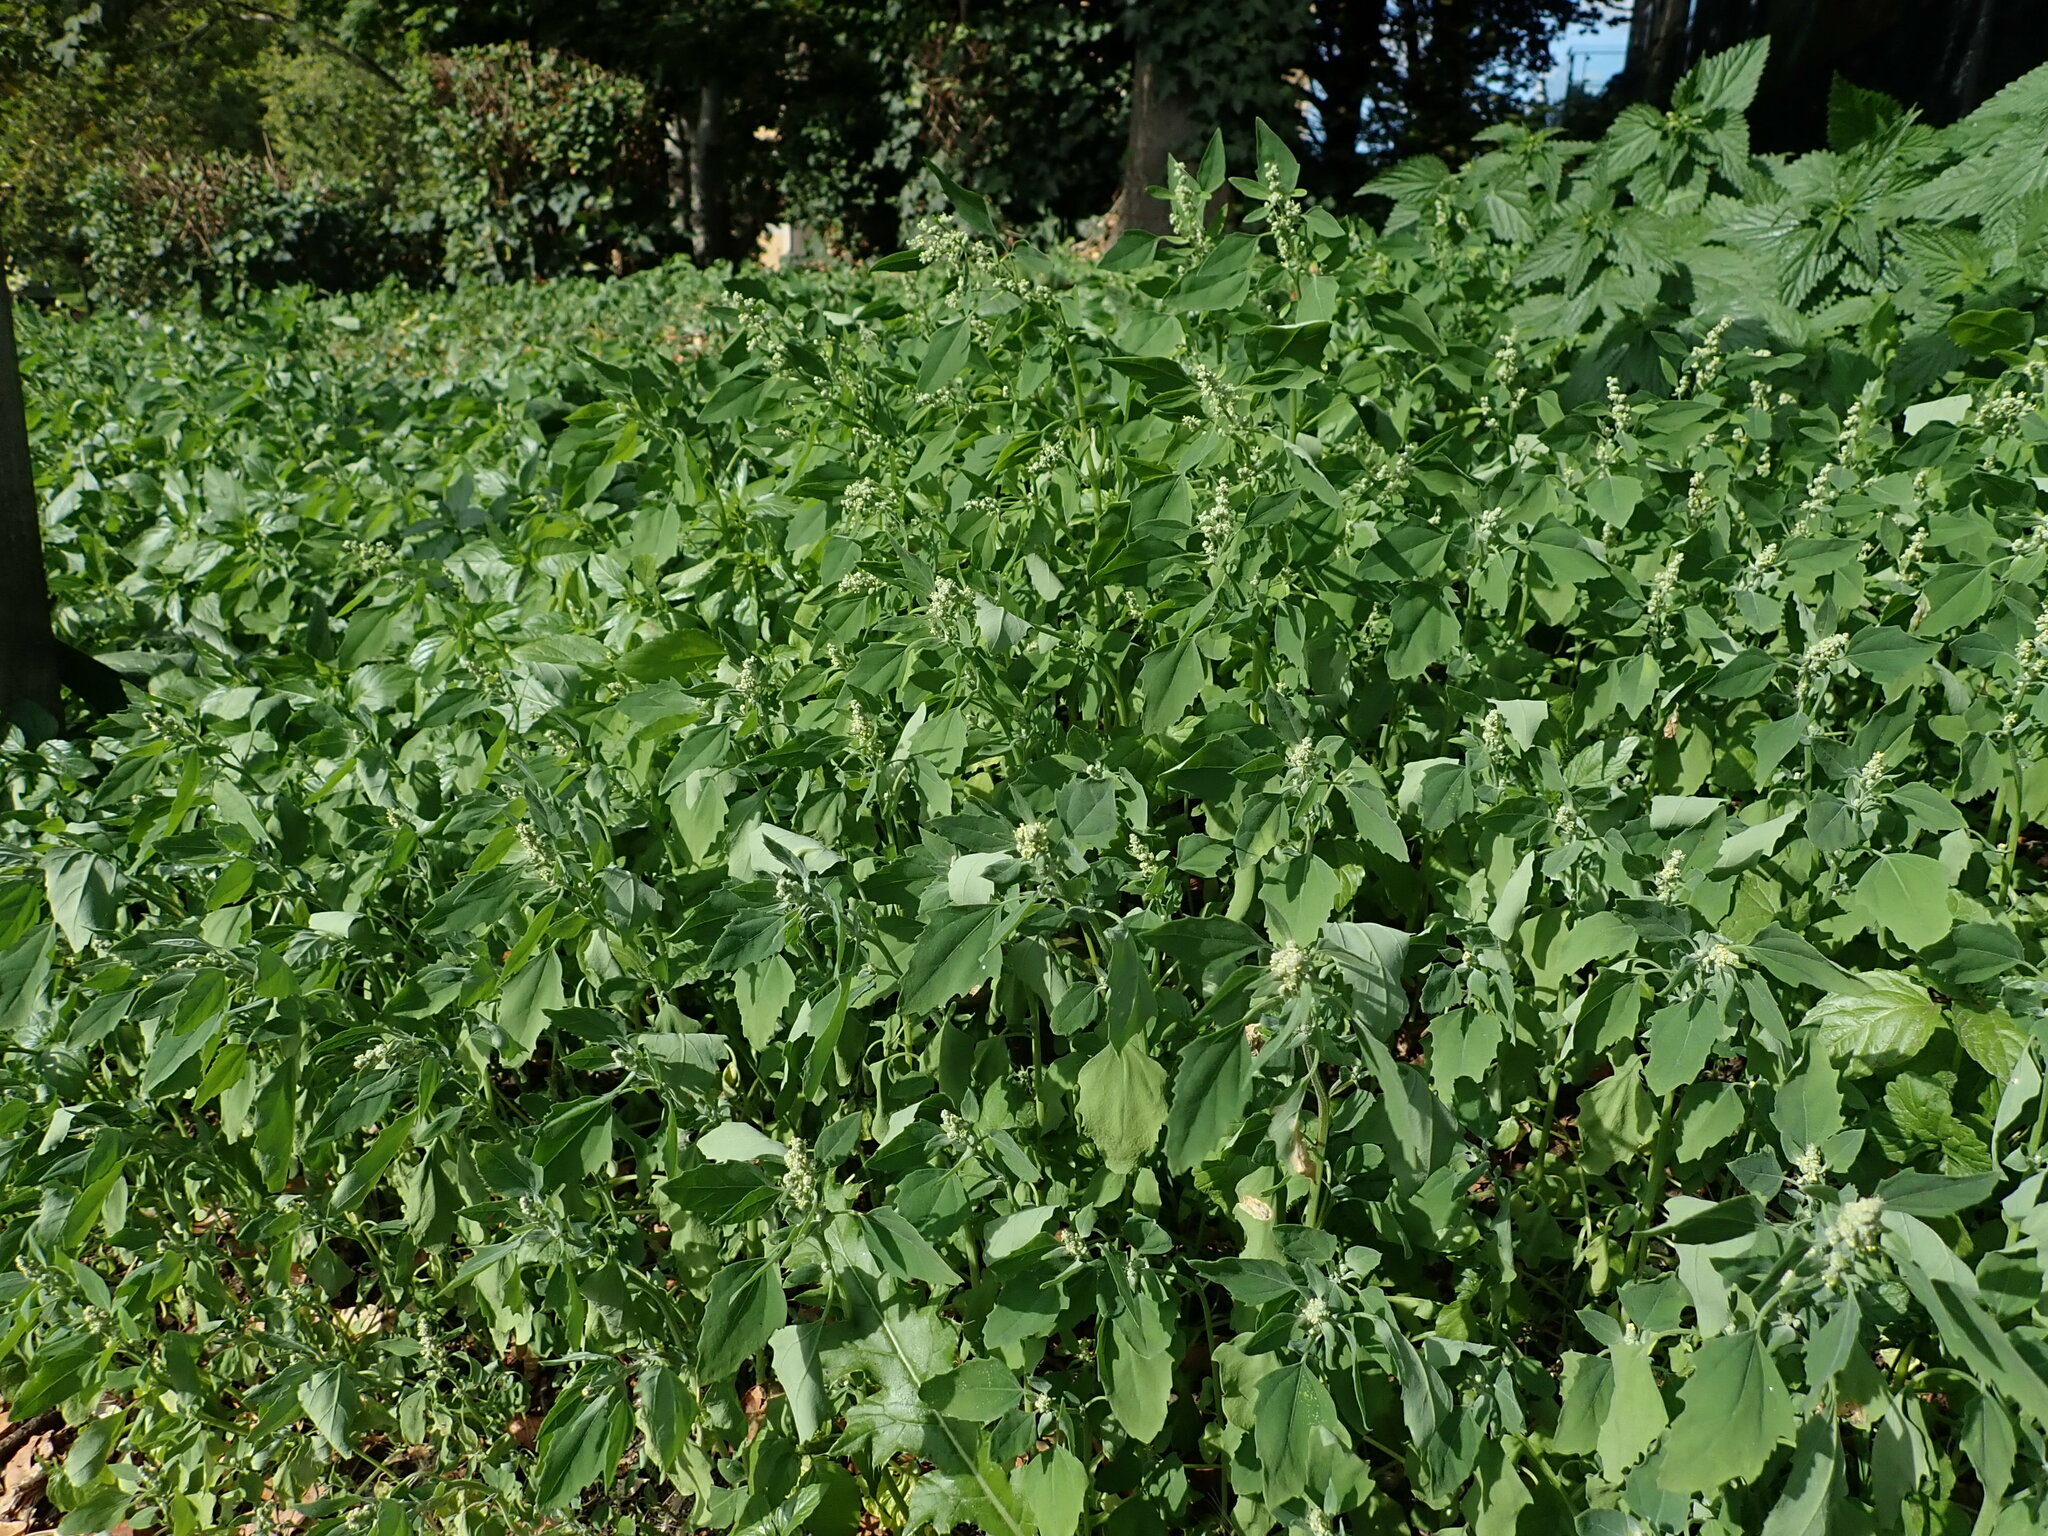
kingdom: Plantae
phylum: Tracheophyta
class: Magnoliopsida
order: Caryophyllales
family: Amaranthaceae
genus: Chenopodium
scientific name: Chenopodium album
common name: Fat-hen
